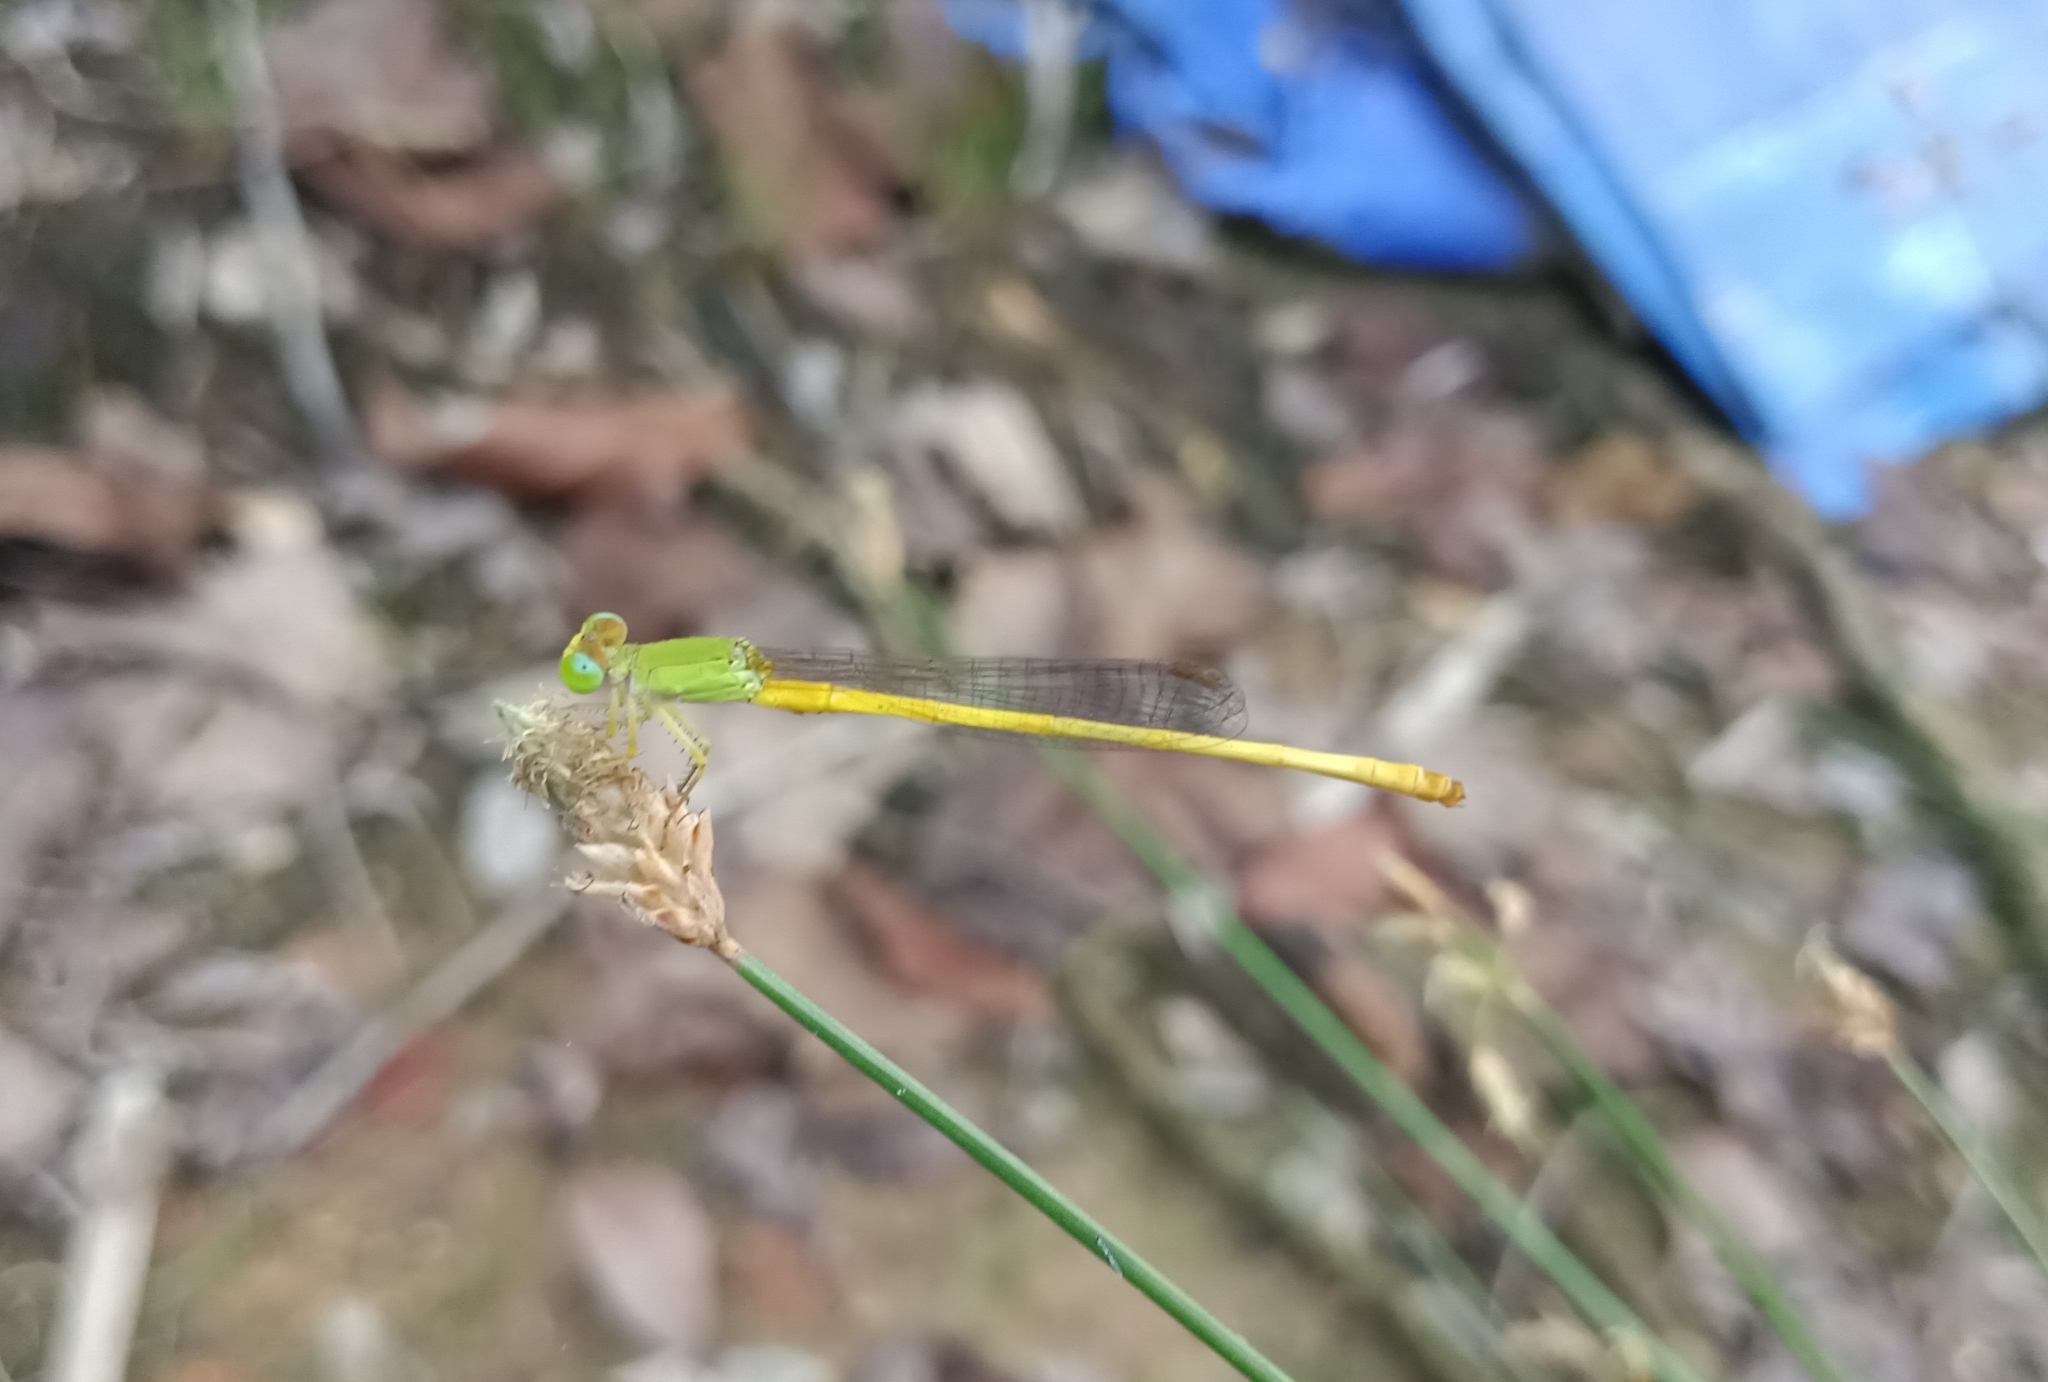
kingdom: Animalia
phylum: Arthropoda
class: Insecta
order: Odonata
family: Coenagrionidae
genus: Ceriagrion
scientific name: Ceriagrion coromandelianum
